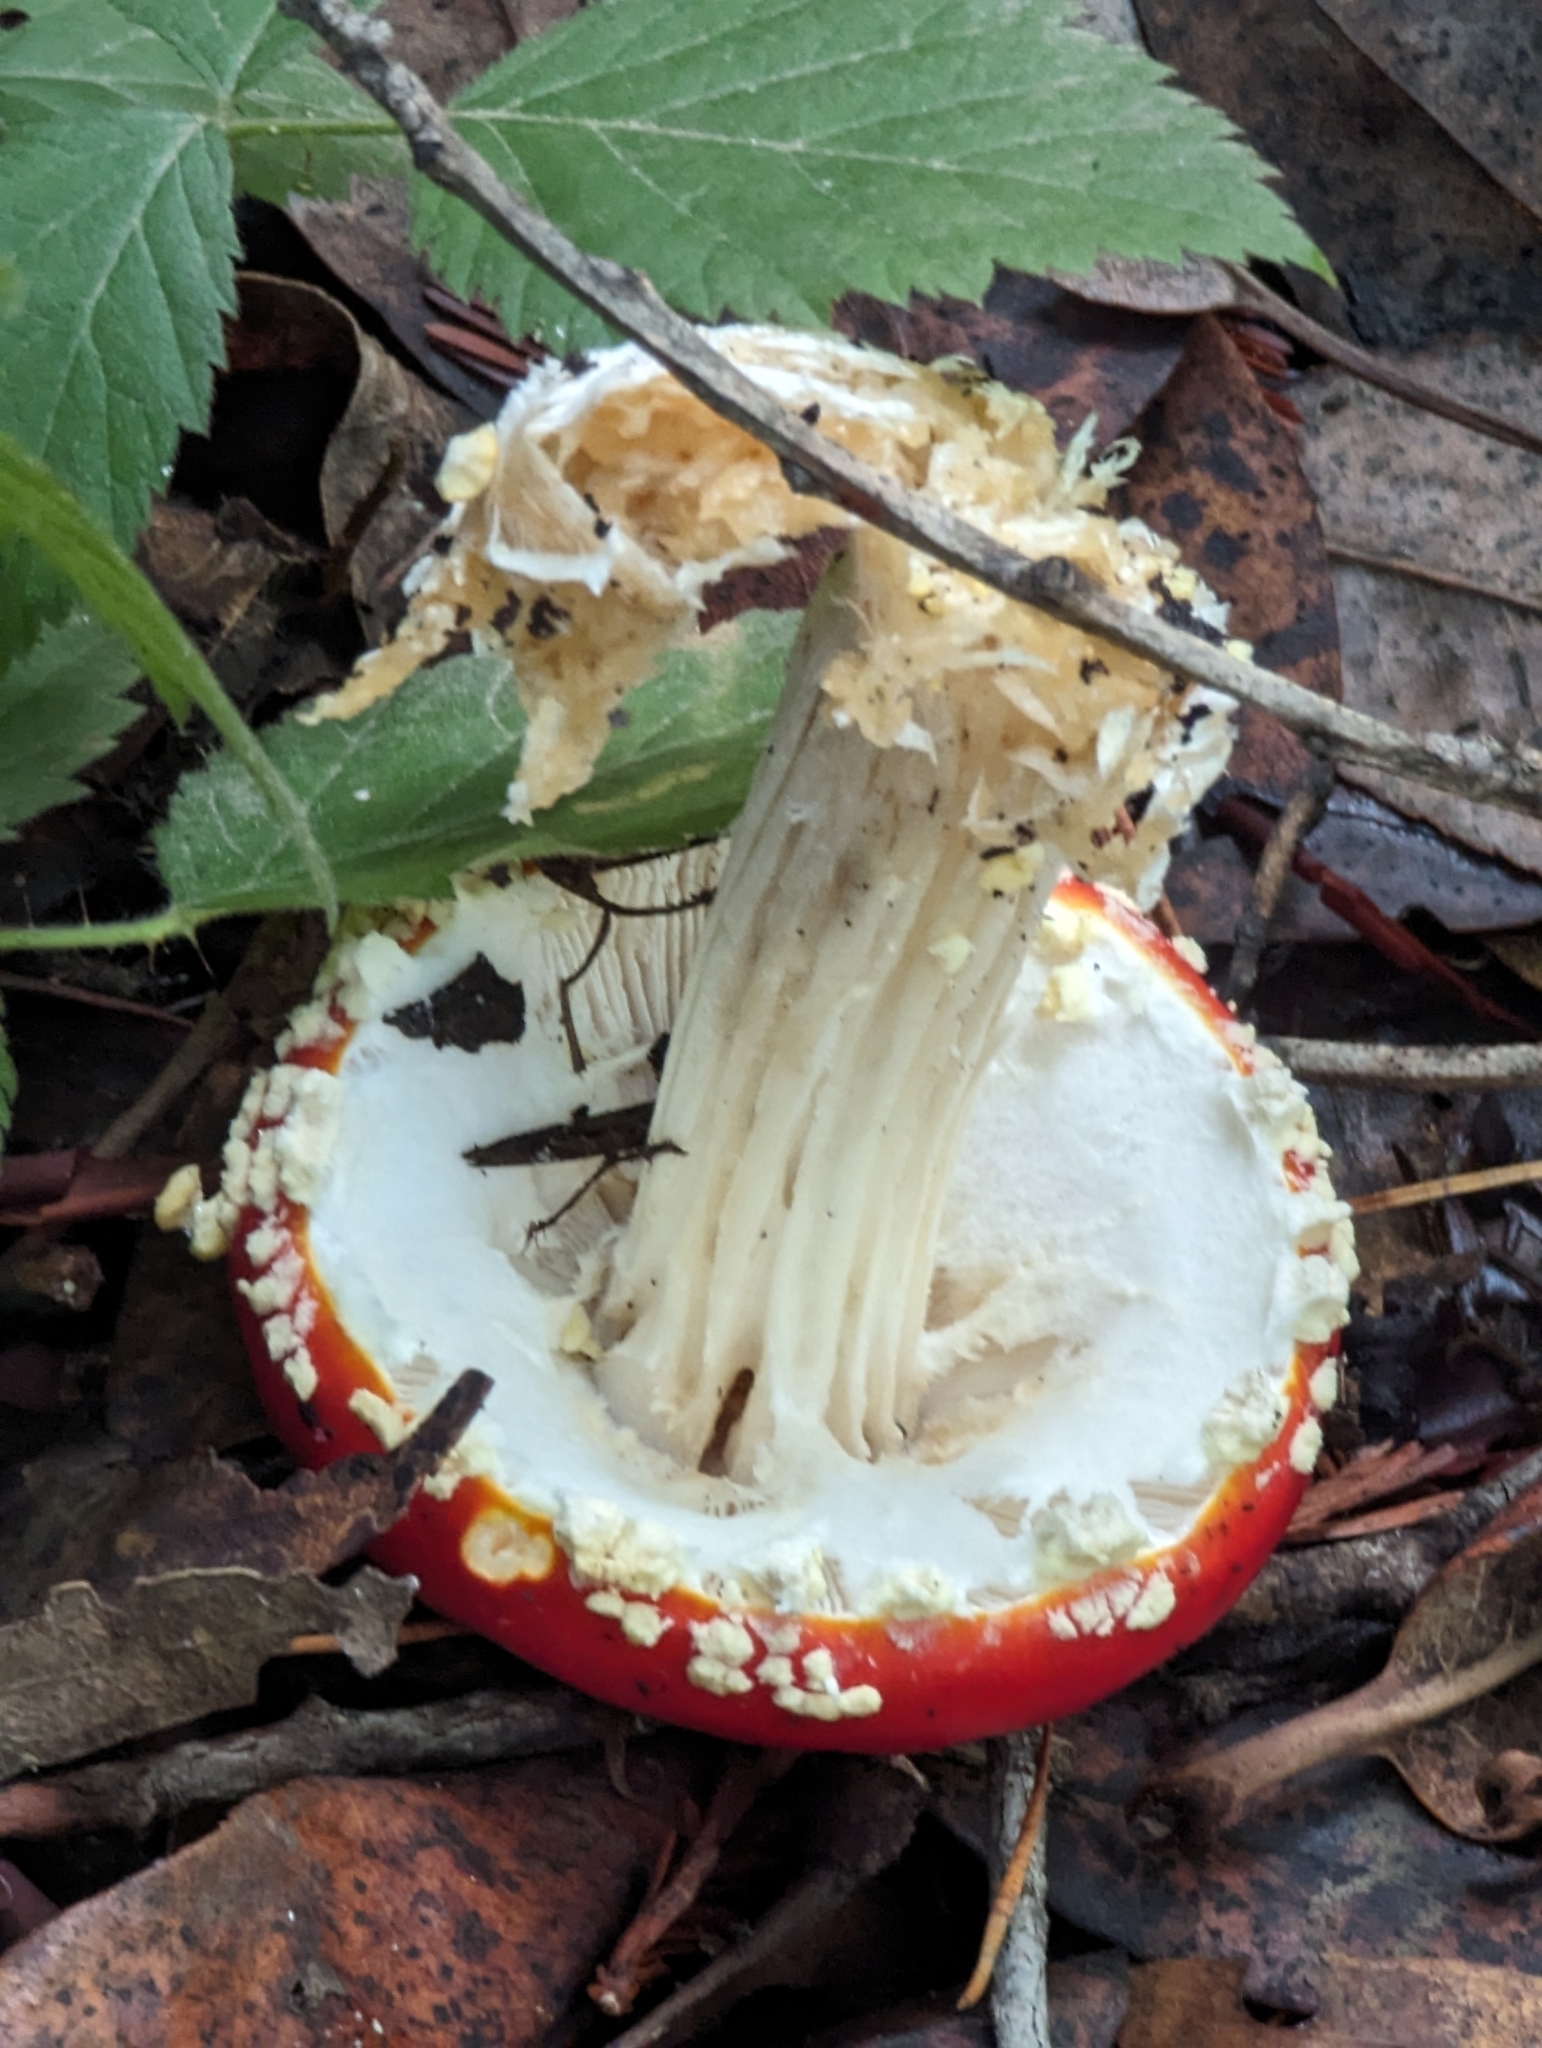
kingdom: Fungi
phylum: Basidiomycota
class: Agaricomycetes
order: Agaricales
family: Amanitaceae
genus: Amanita
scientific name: Amanita muscaria
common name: Fly agaric
